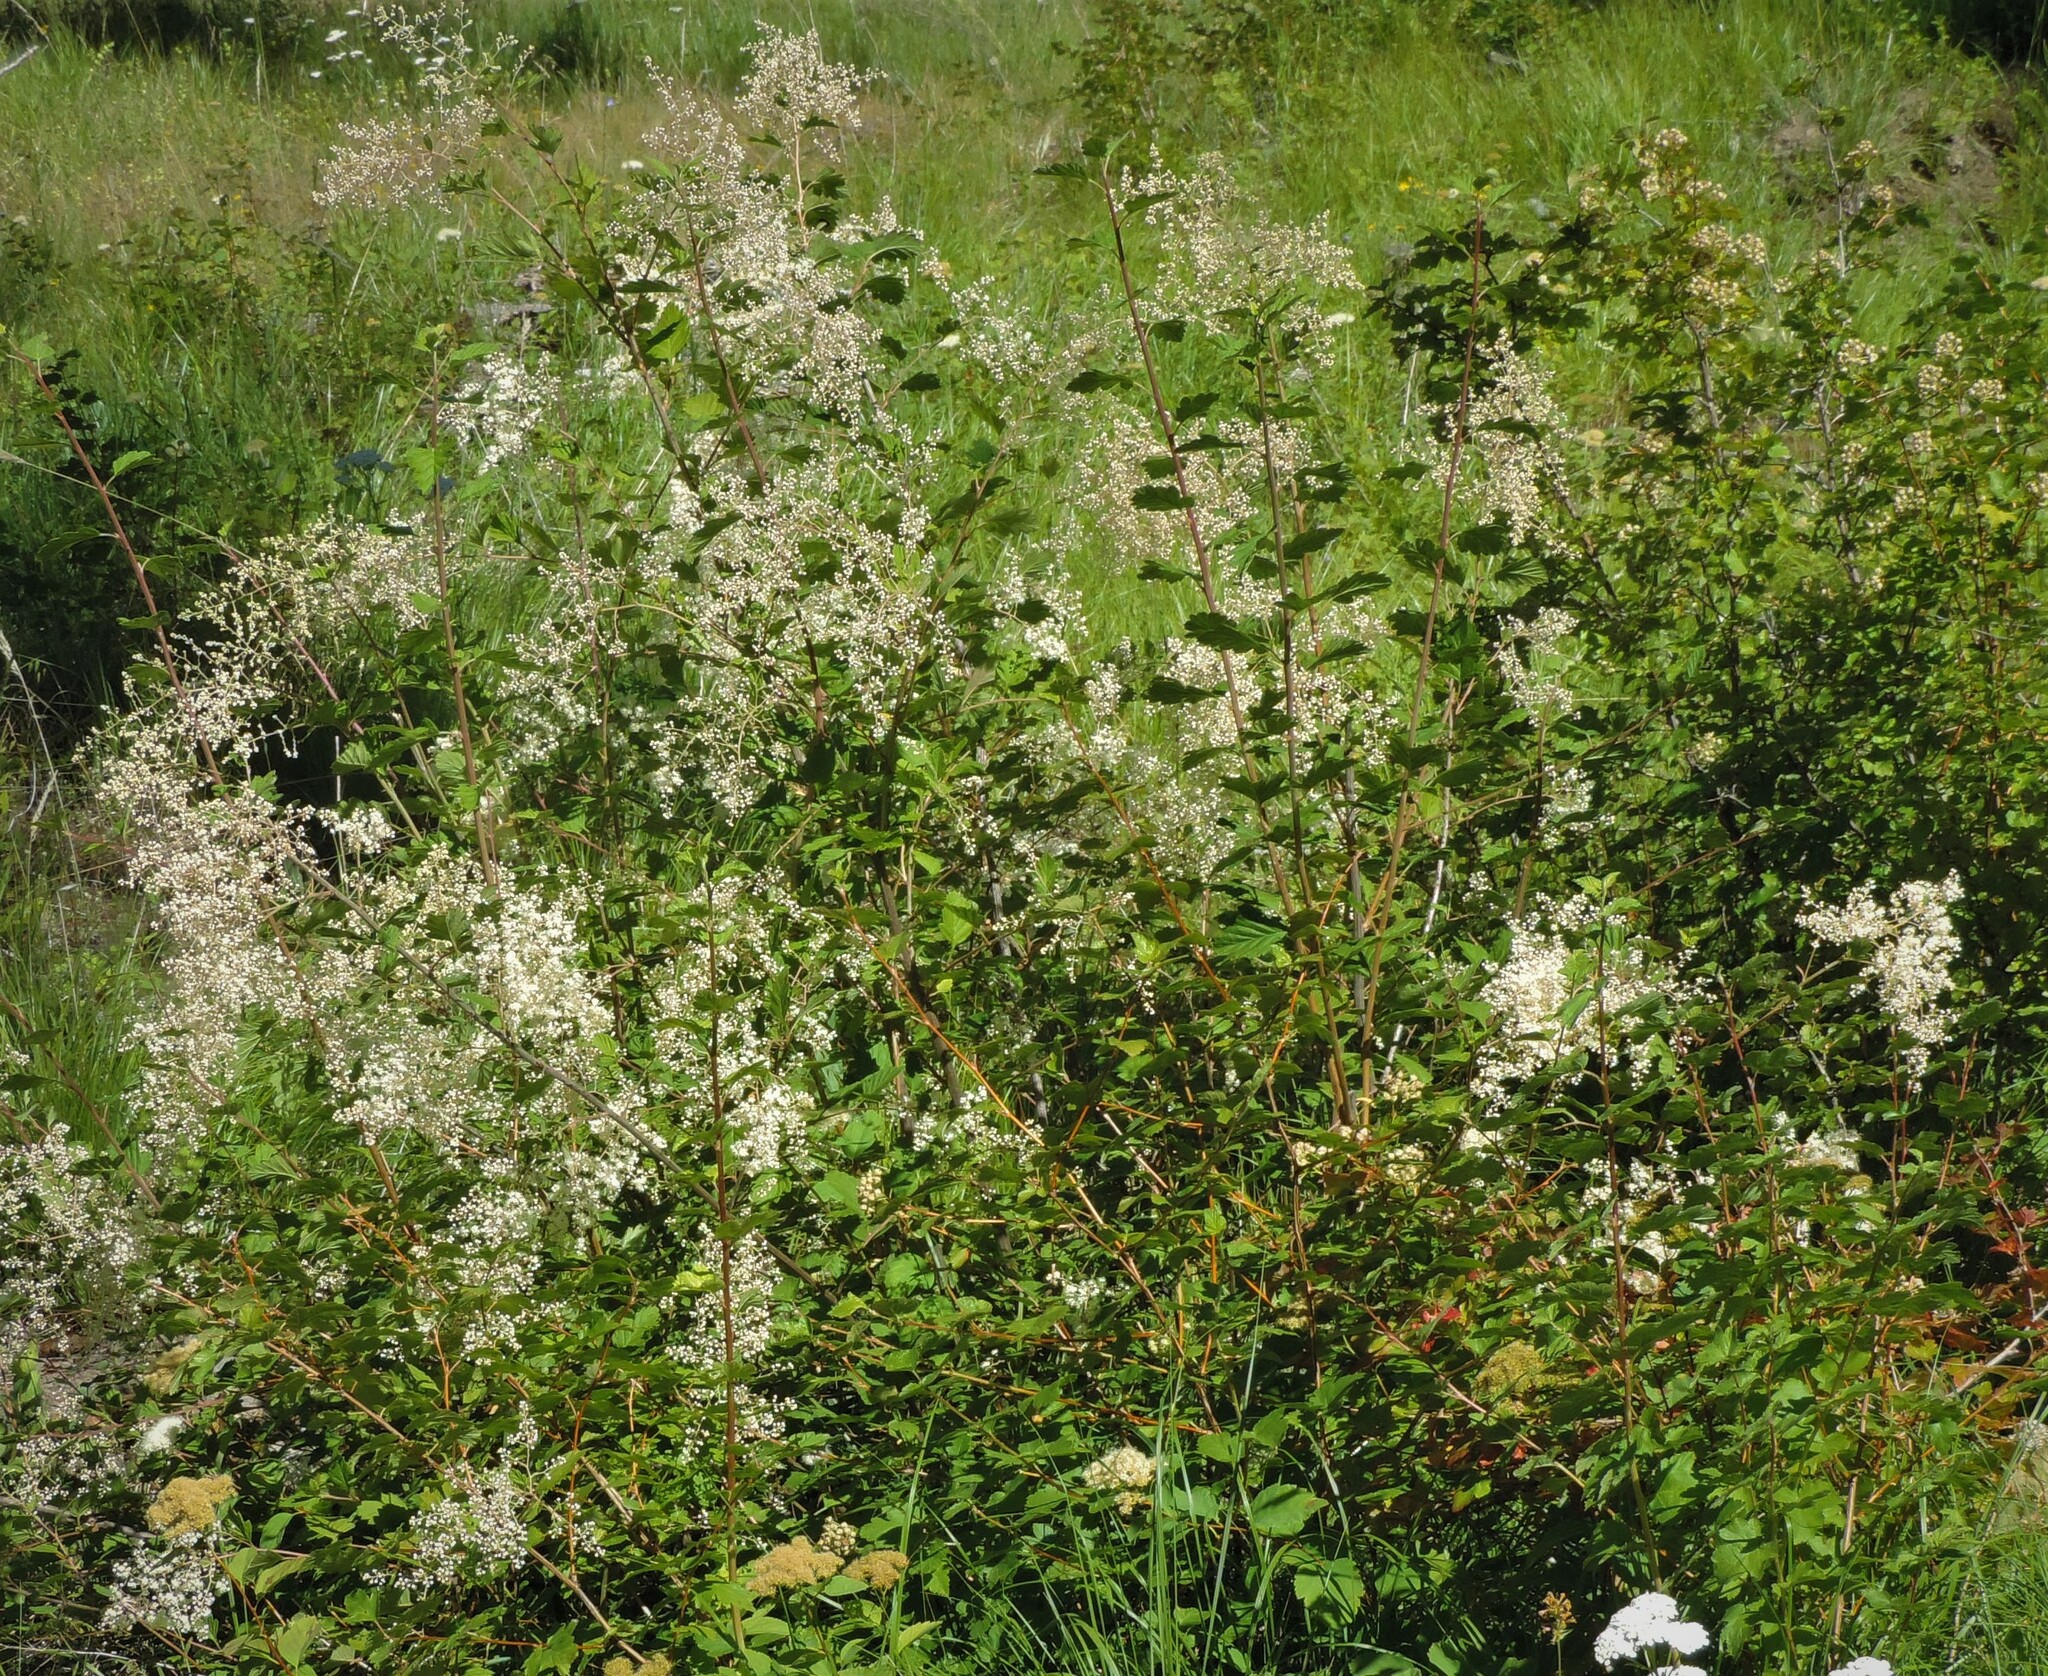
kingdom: Plantae
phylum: Tracheophyta
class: Magnoliopsida
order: Rosales
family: Rosaceae
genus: Holodiscus
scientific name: Holodiscus discolor
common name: Oceanspray
